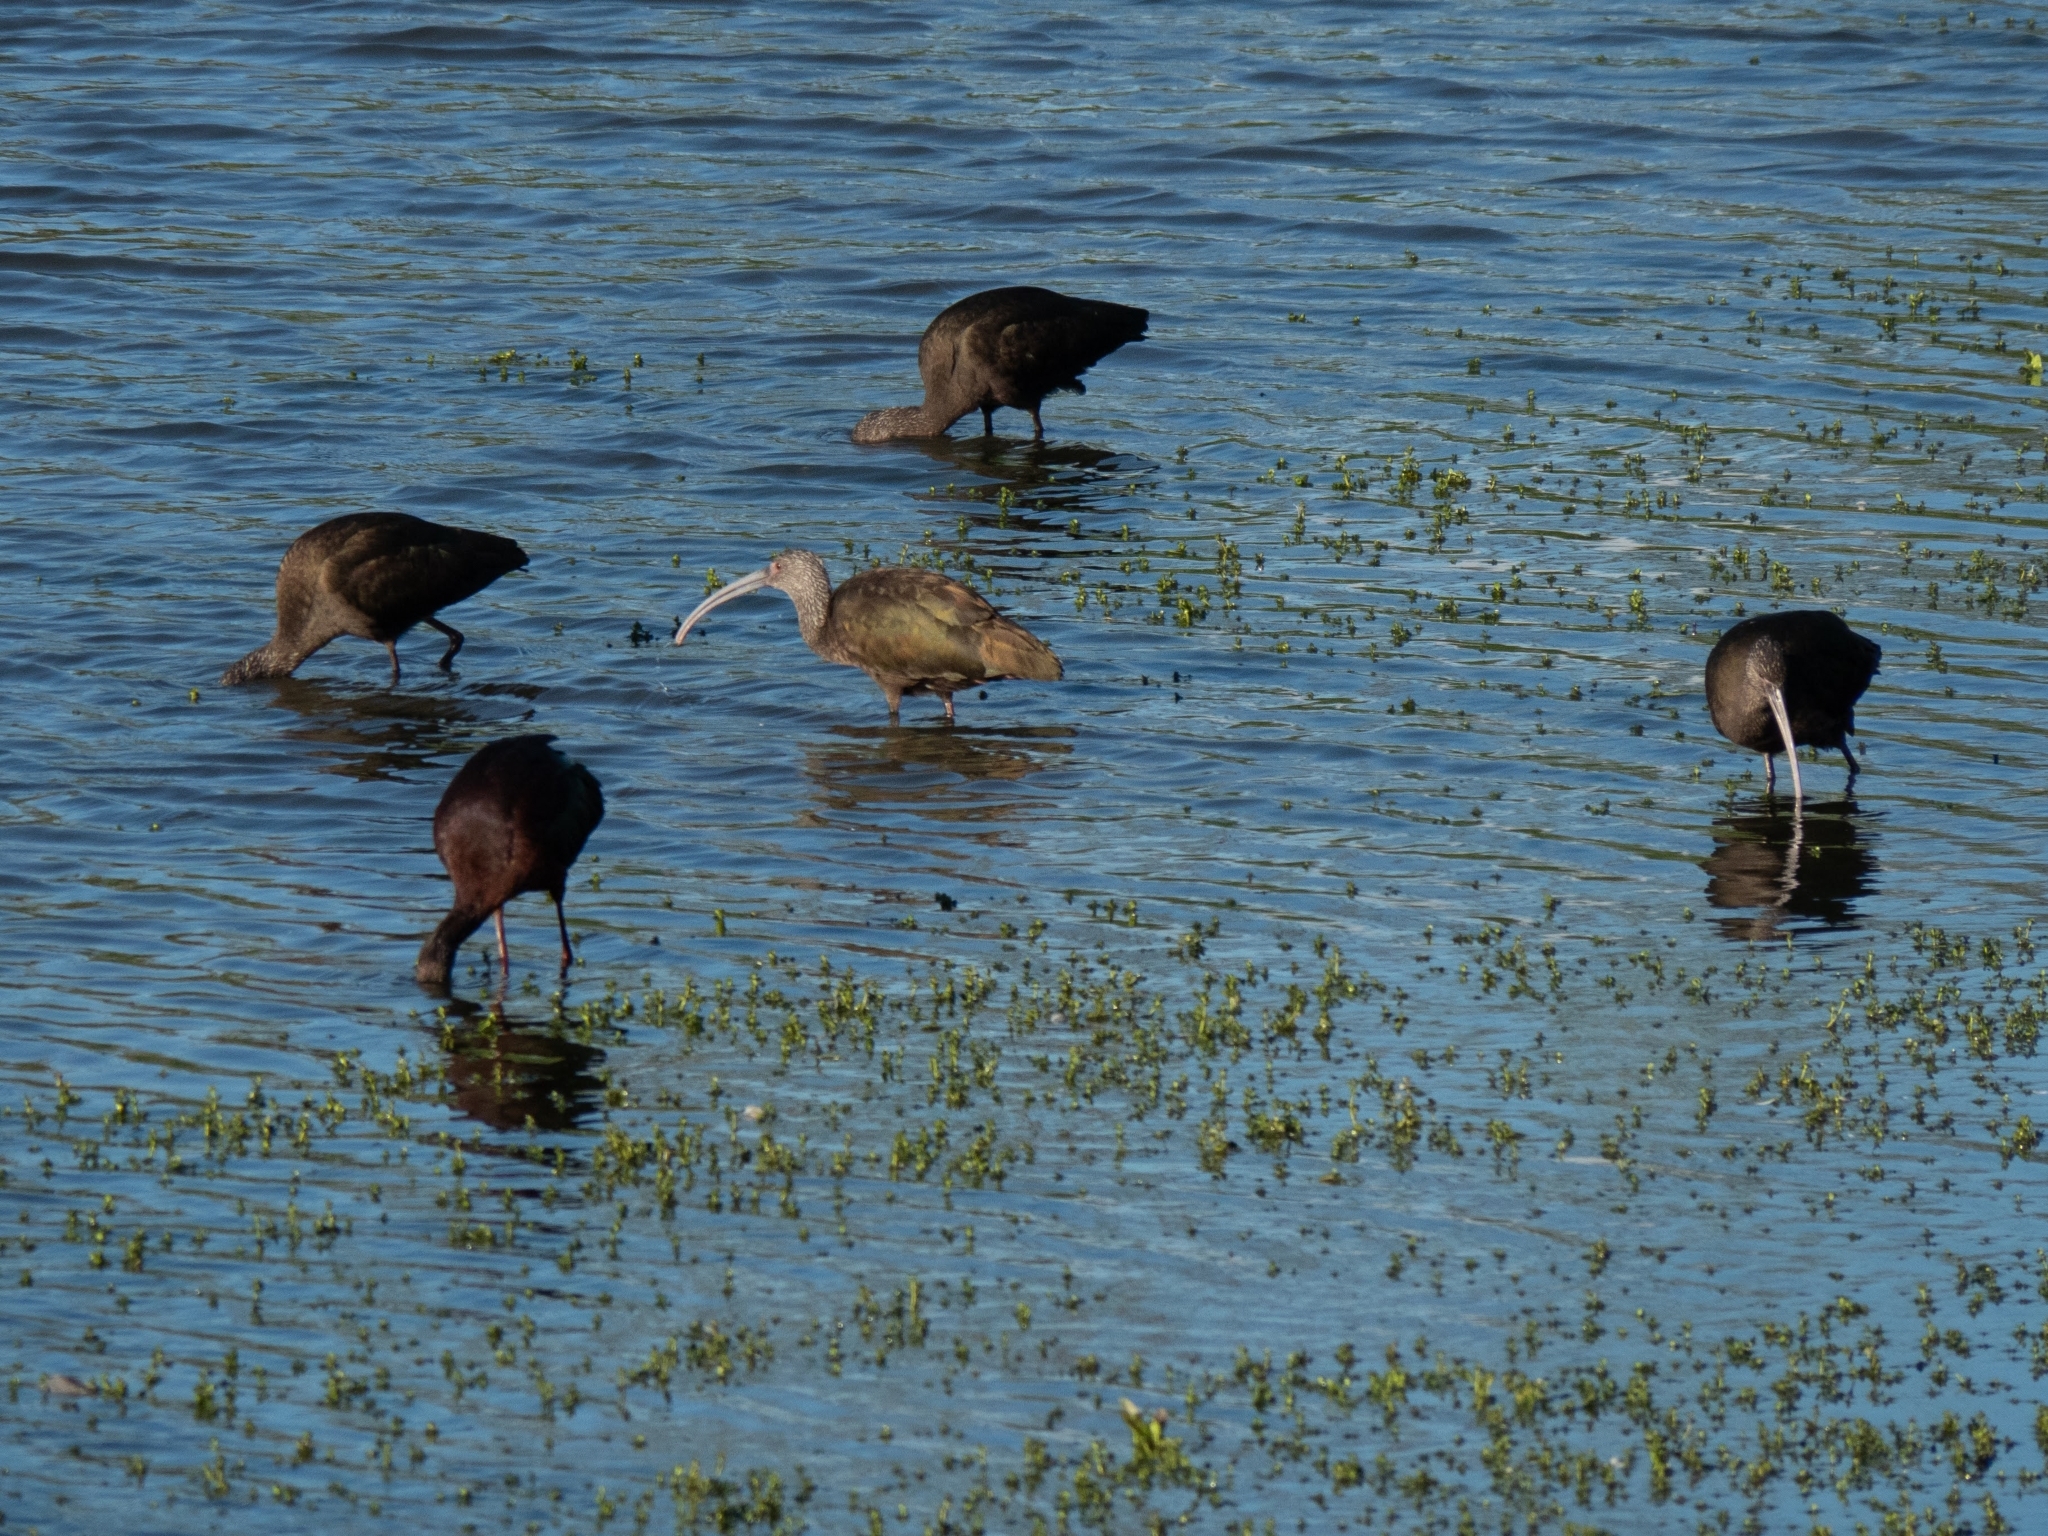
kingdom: Animalia
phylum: Chordata
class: Aves
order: Pelecaniformes
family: Threskiornithidae
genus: Plegadis
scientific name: Plegadis chihi
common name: White-faced ibis
